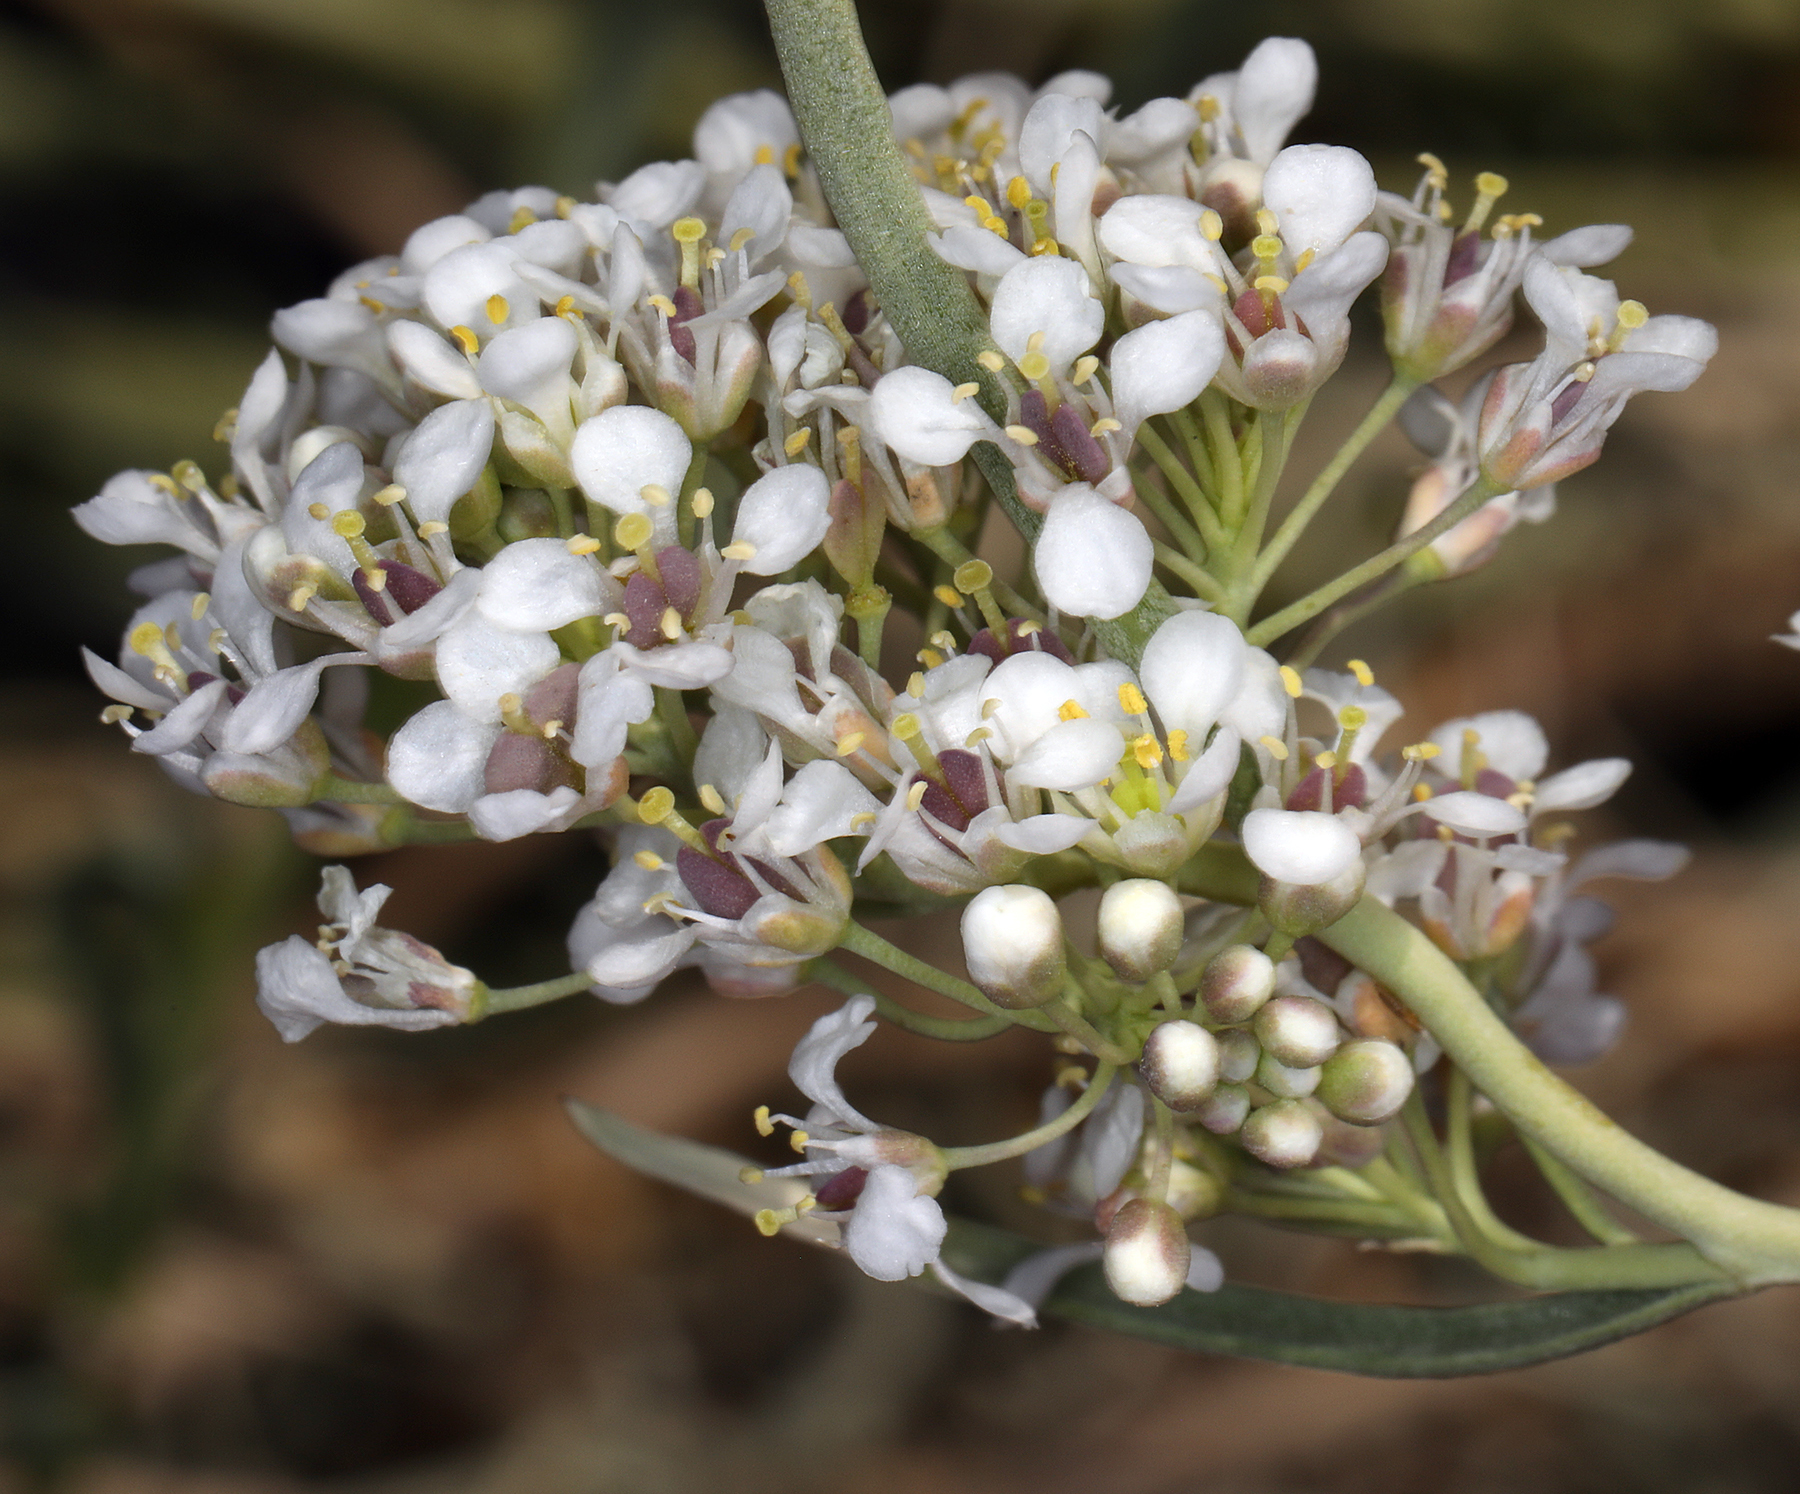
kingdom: Plantae
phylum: Tracheophyta
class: Magnoliopsida
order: Brassicales
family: Brassicaceae
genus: Lepidium
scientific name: Lepidium fremontii
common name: Fremont's pepperwort
